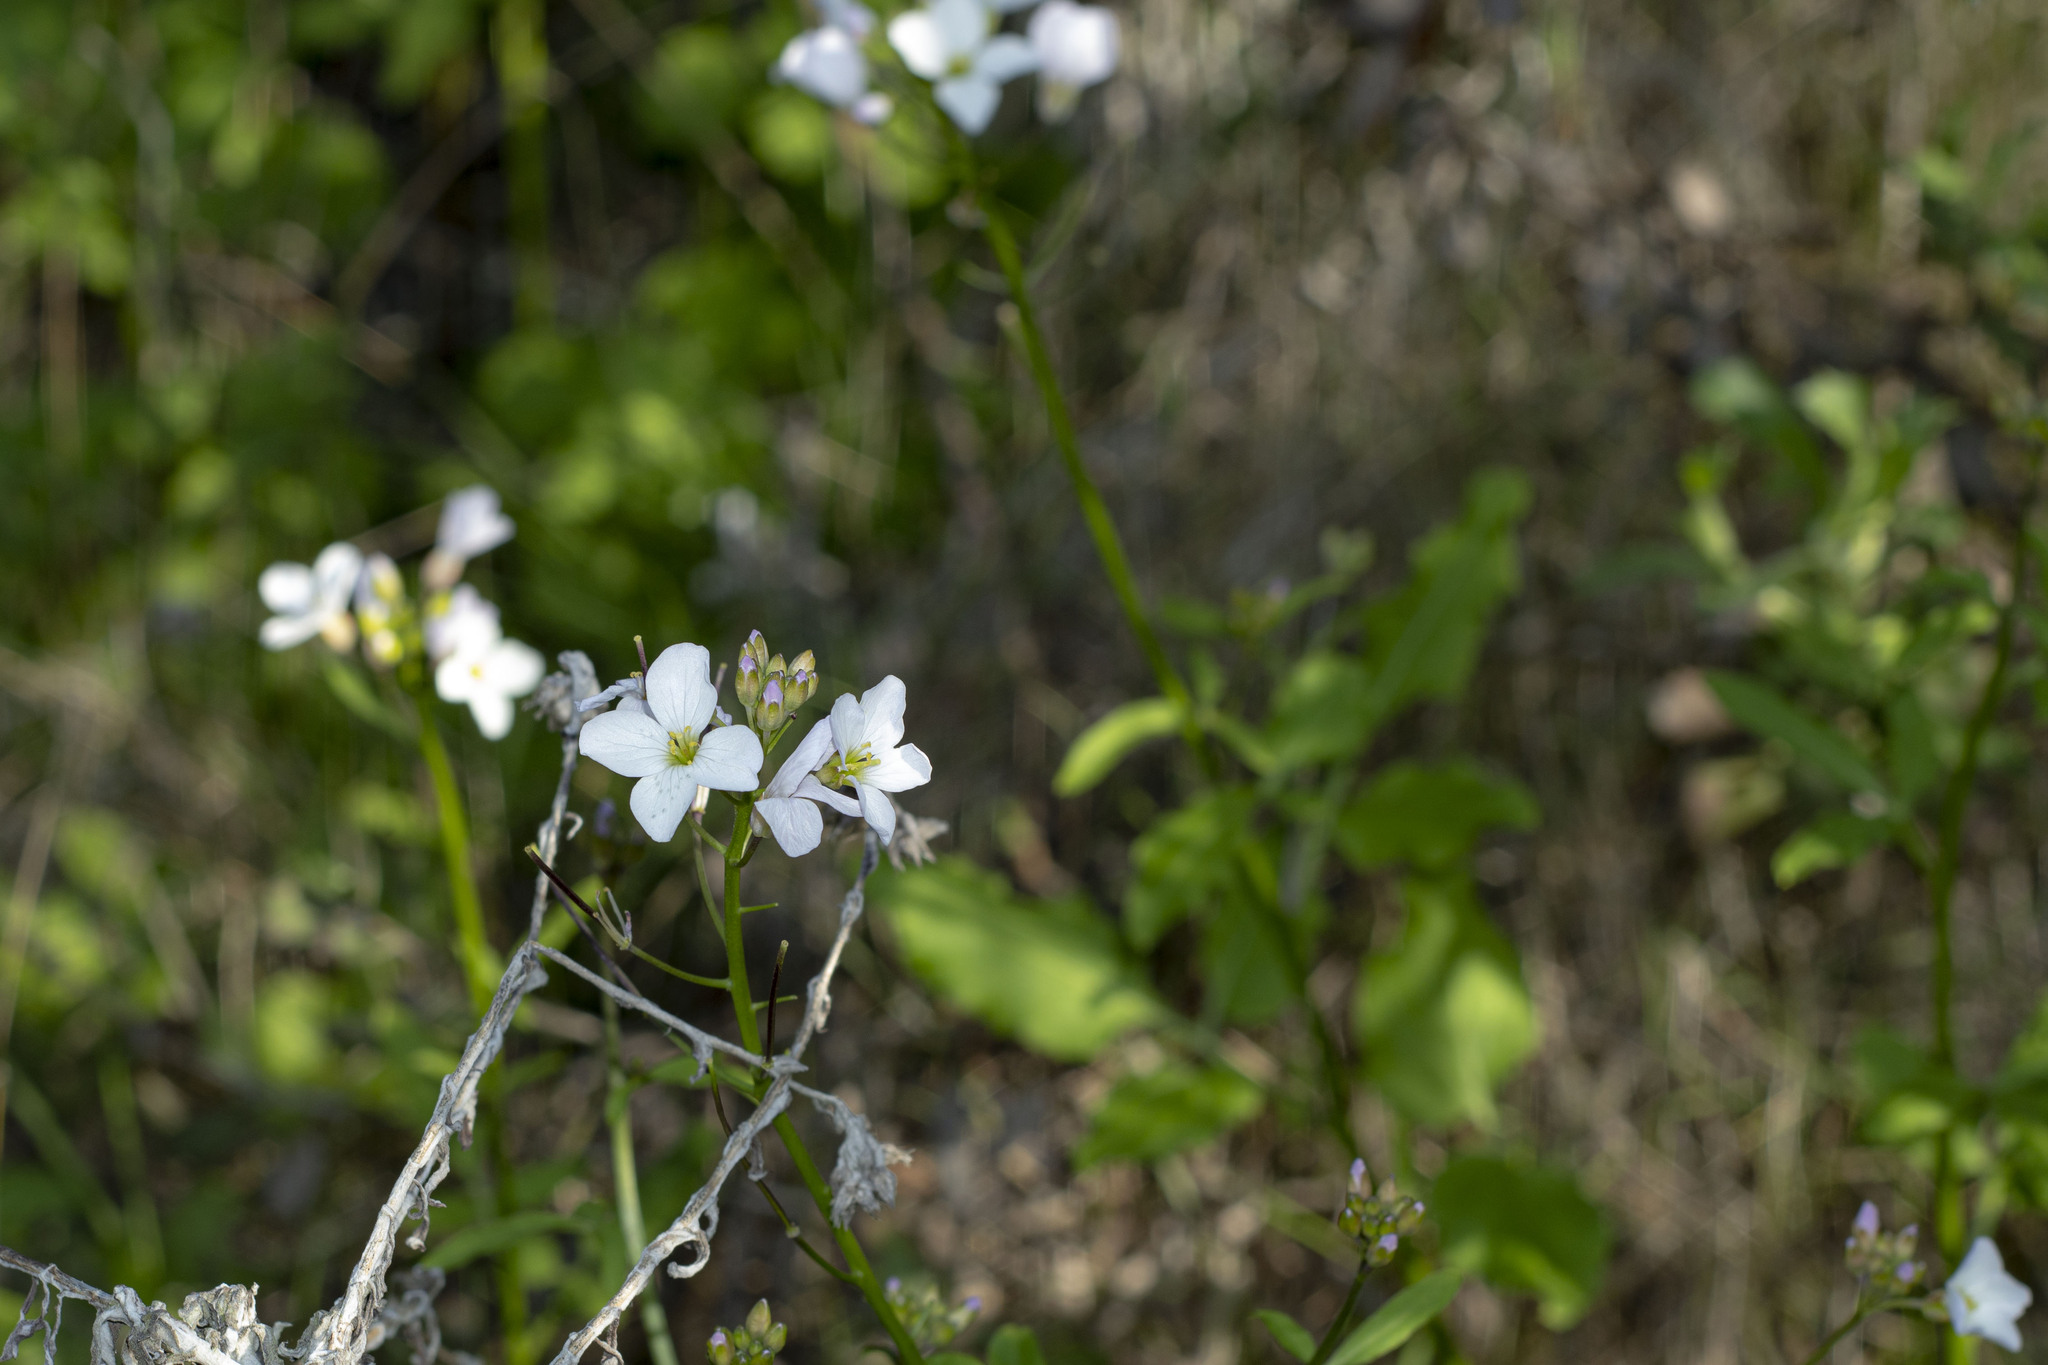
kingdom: Plantae
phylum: Tracheophyta
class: Magnoliopsida
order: Brassicales
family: Brassicaceae
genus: Cardamine
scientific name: Cardamine californica
